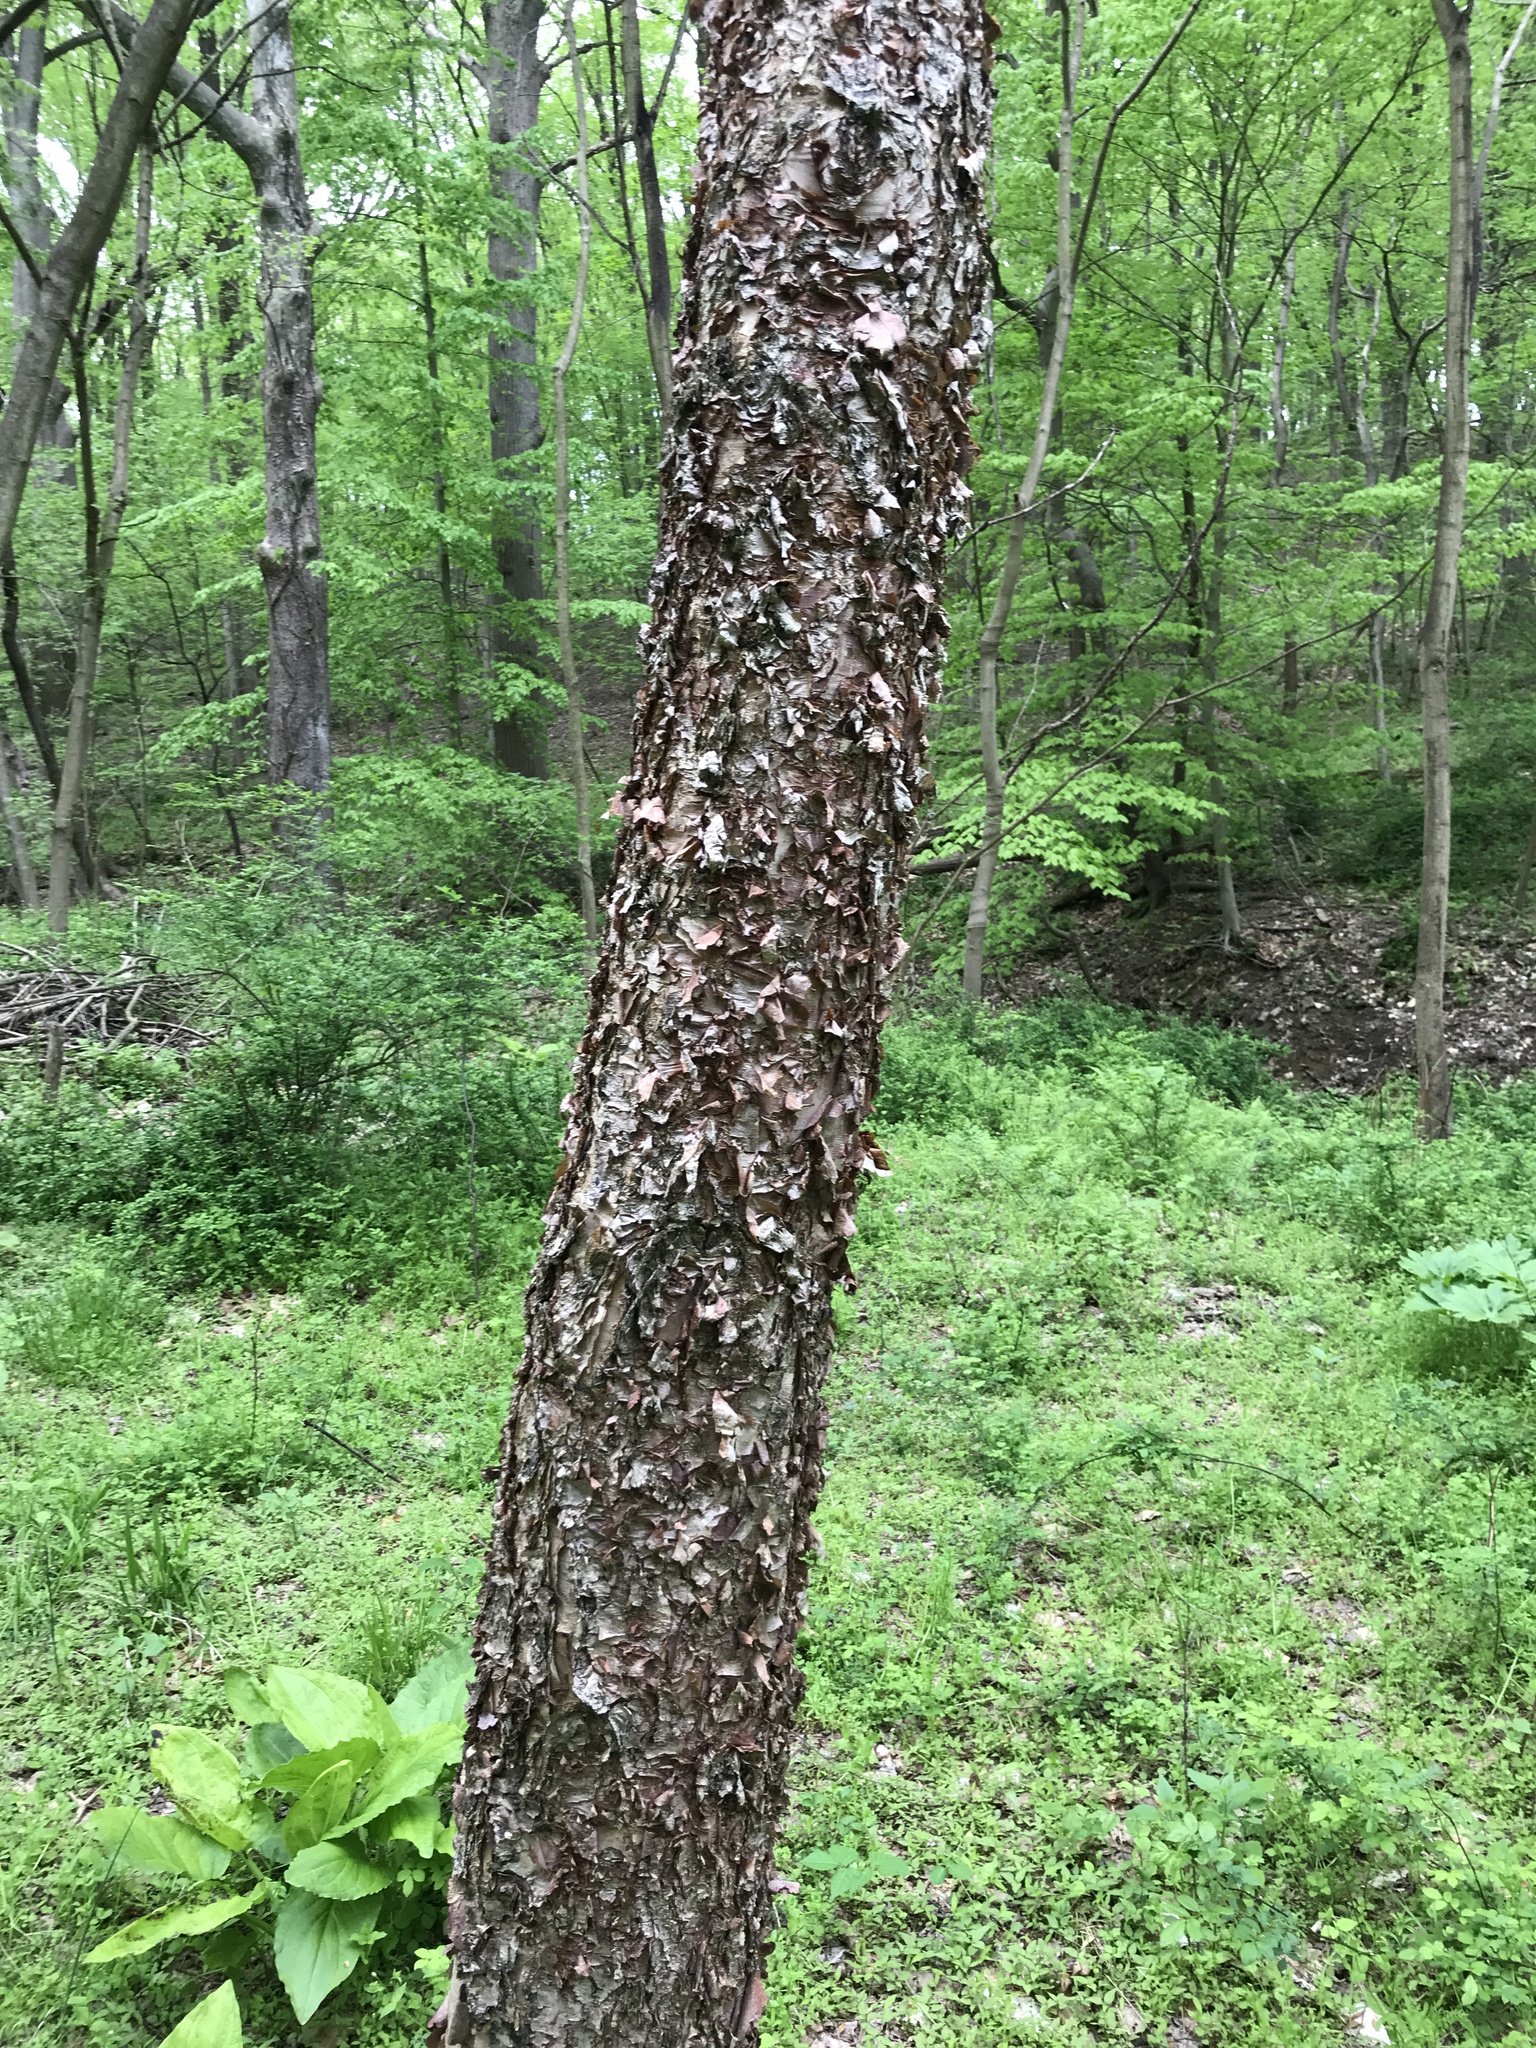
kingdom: Plantae
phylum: Tracheophyta
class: Magnoliopsida
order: Fagales
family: Betulaceae
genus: Betula
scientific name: Betula nigra
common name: Black birch
